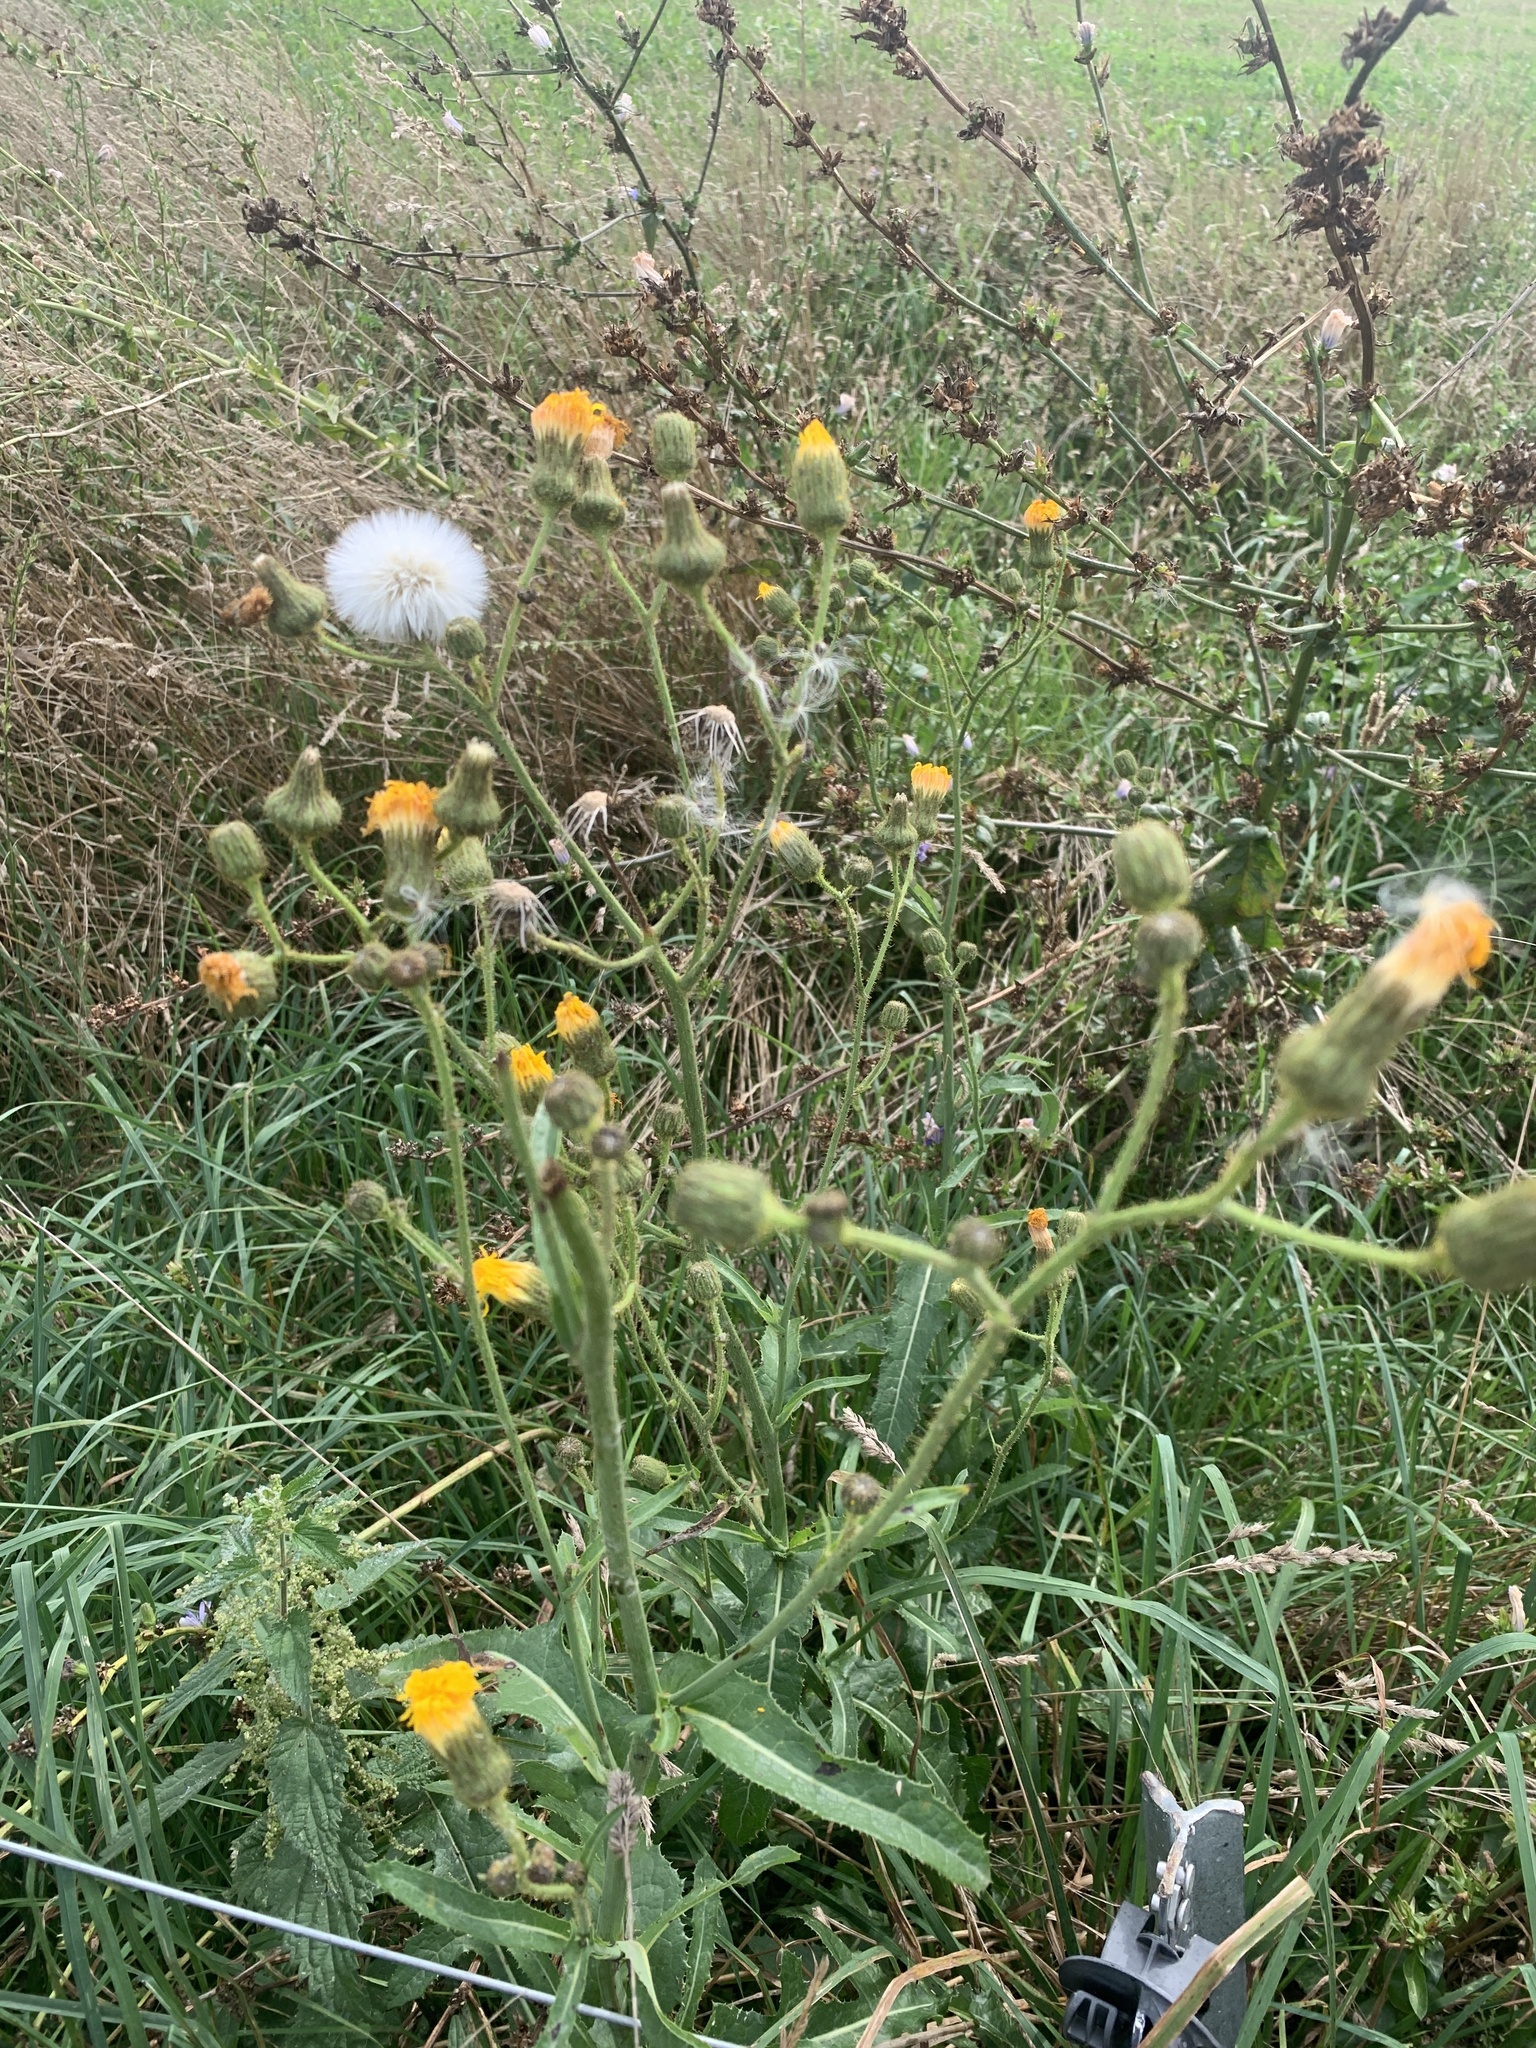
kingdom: Plantae
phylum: Tracheophyta
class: Magnoliopsida
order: Asterales
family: Asteraceae
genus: Sonchus
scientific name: Sonchus arvensis
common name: Perennial sow-thistle
